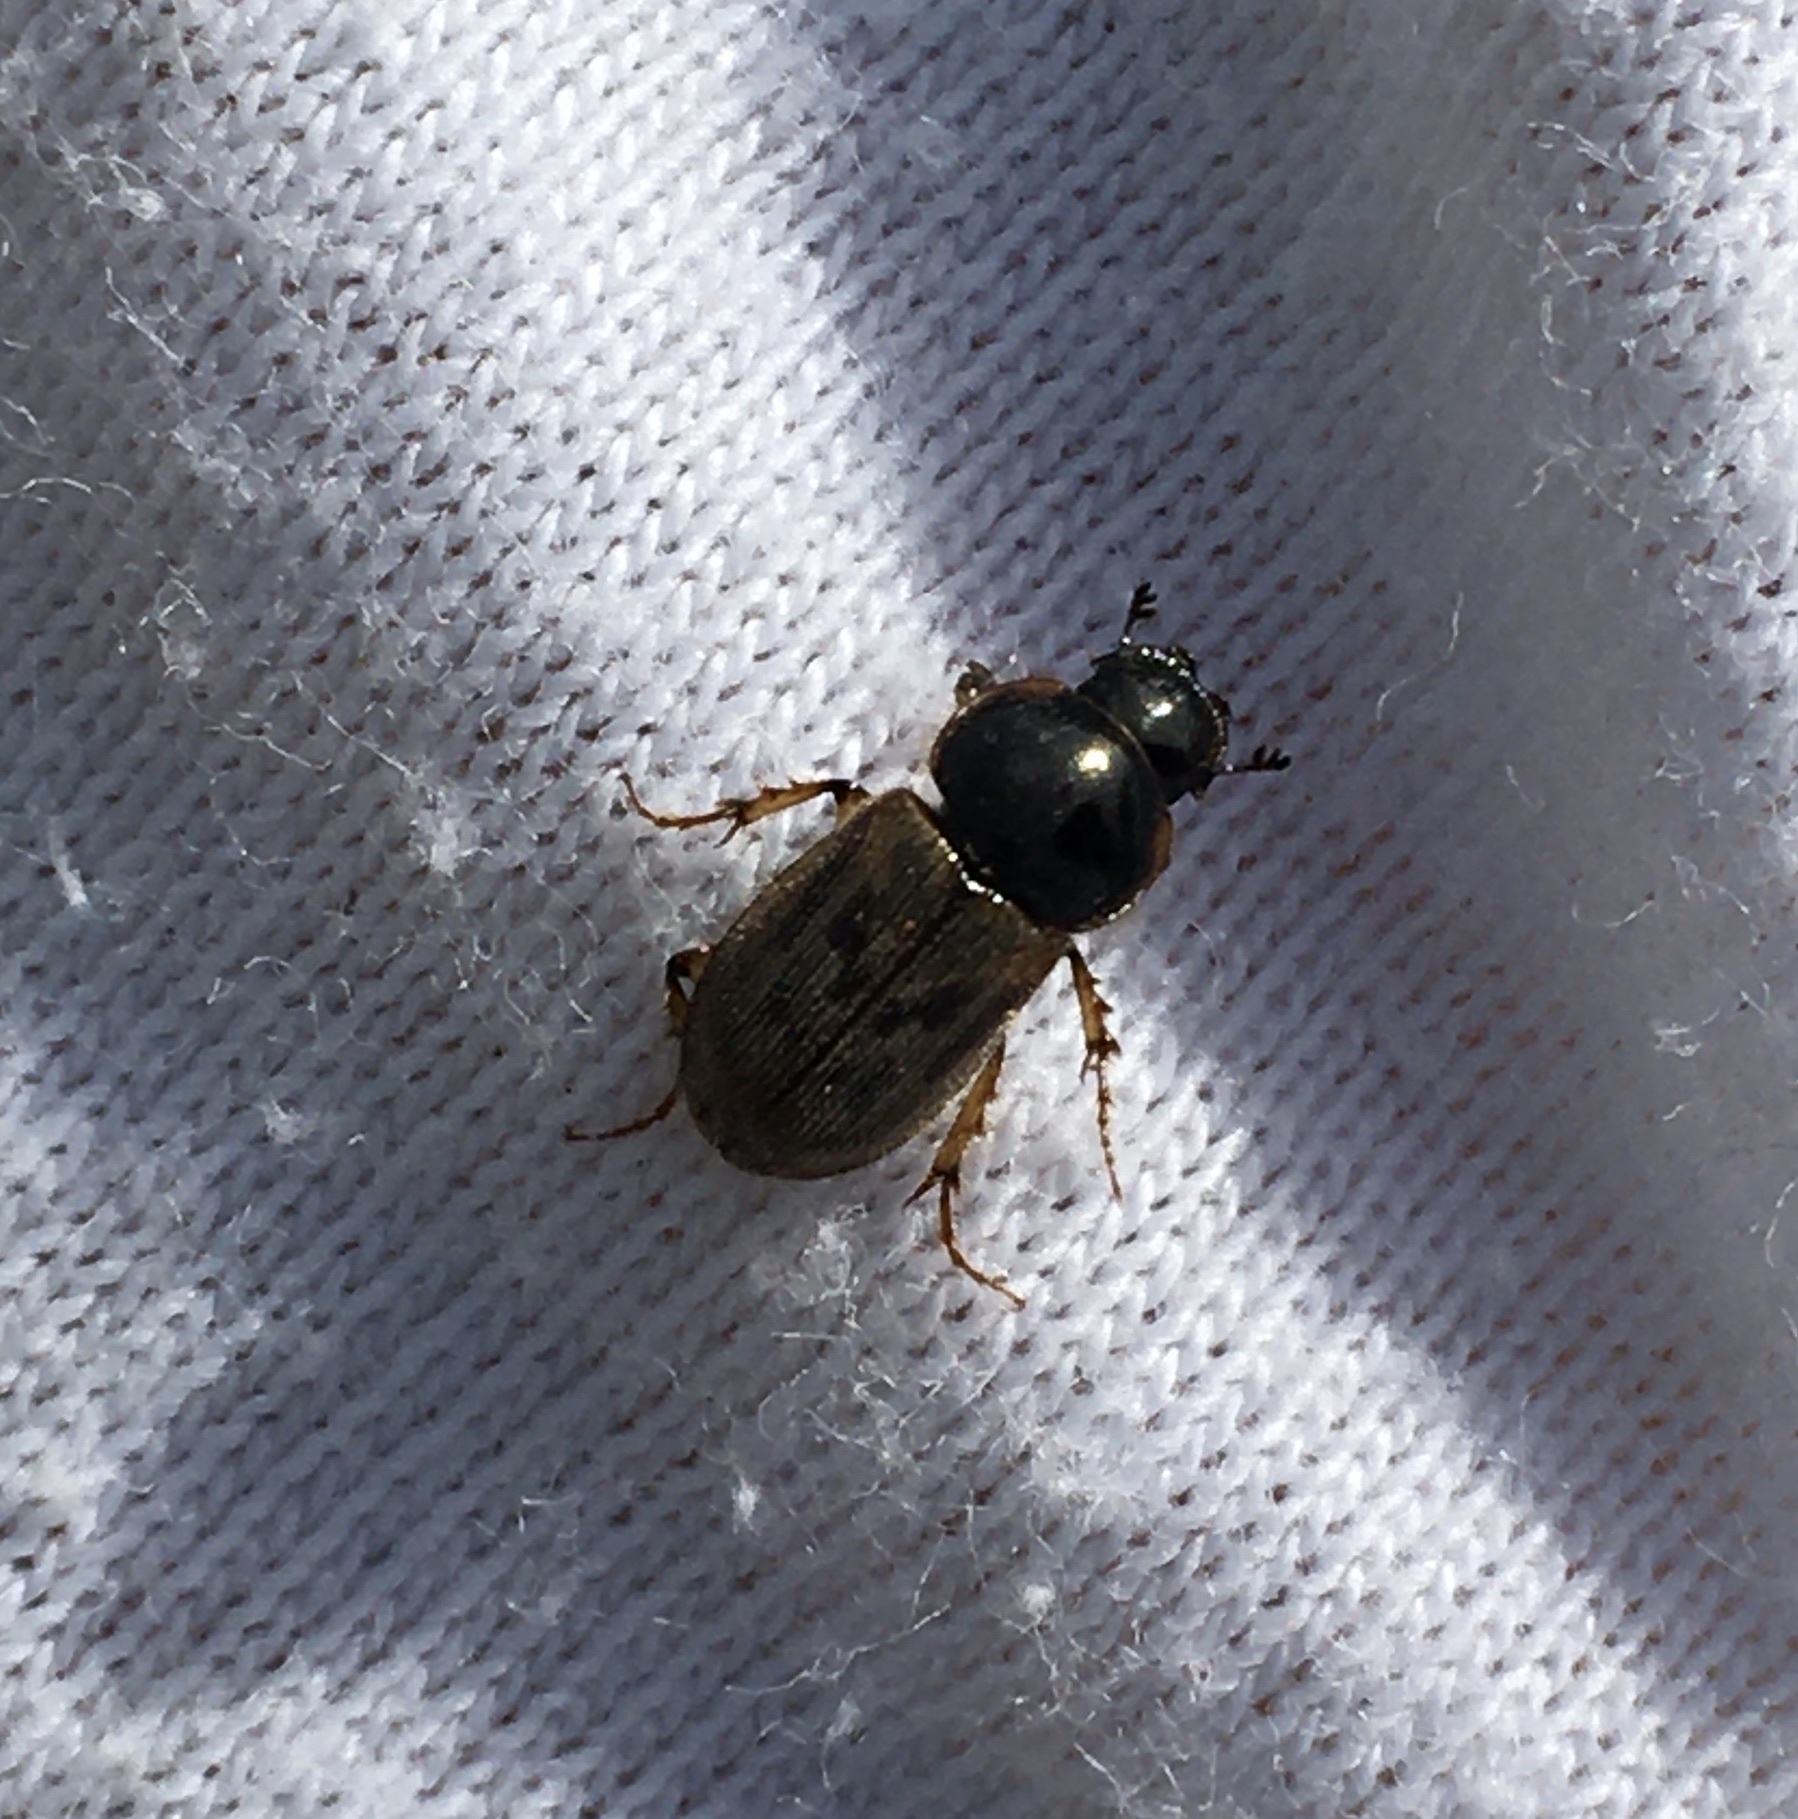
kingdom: Animalia
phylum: Arthropoda
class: Insecta
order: Coleoptera
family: Scarabaeidae
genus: Nimbus
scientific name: Nimbus contaminatus
